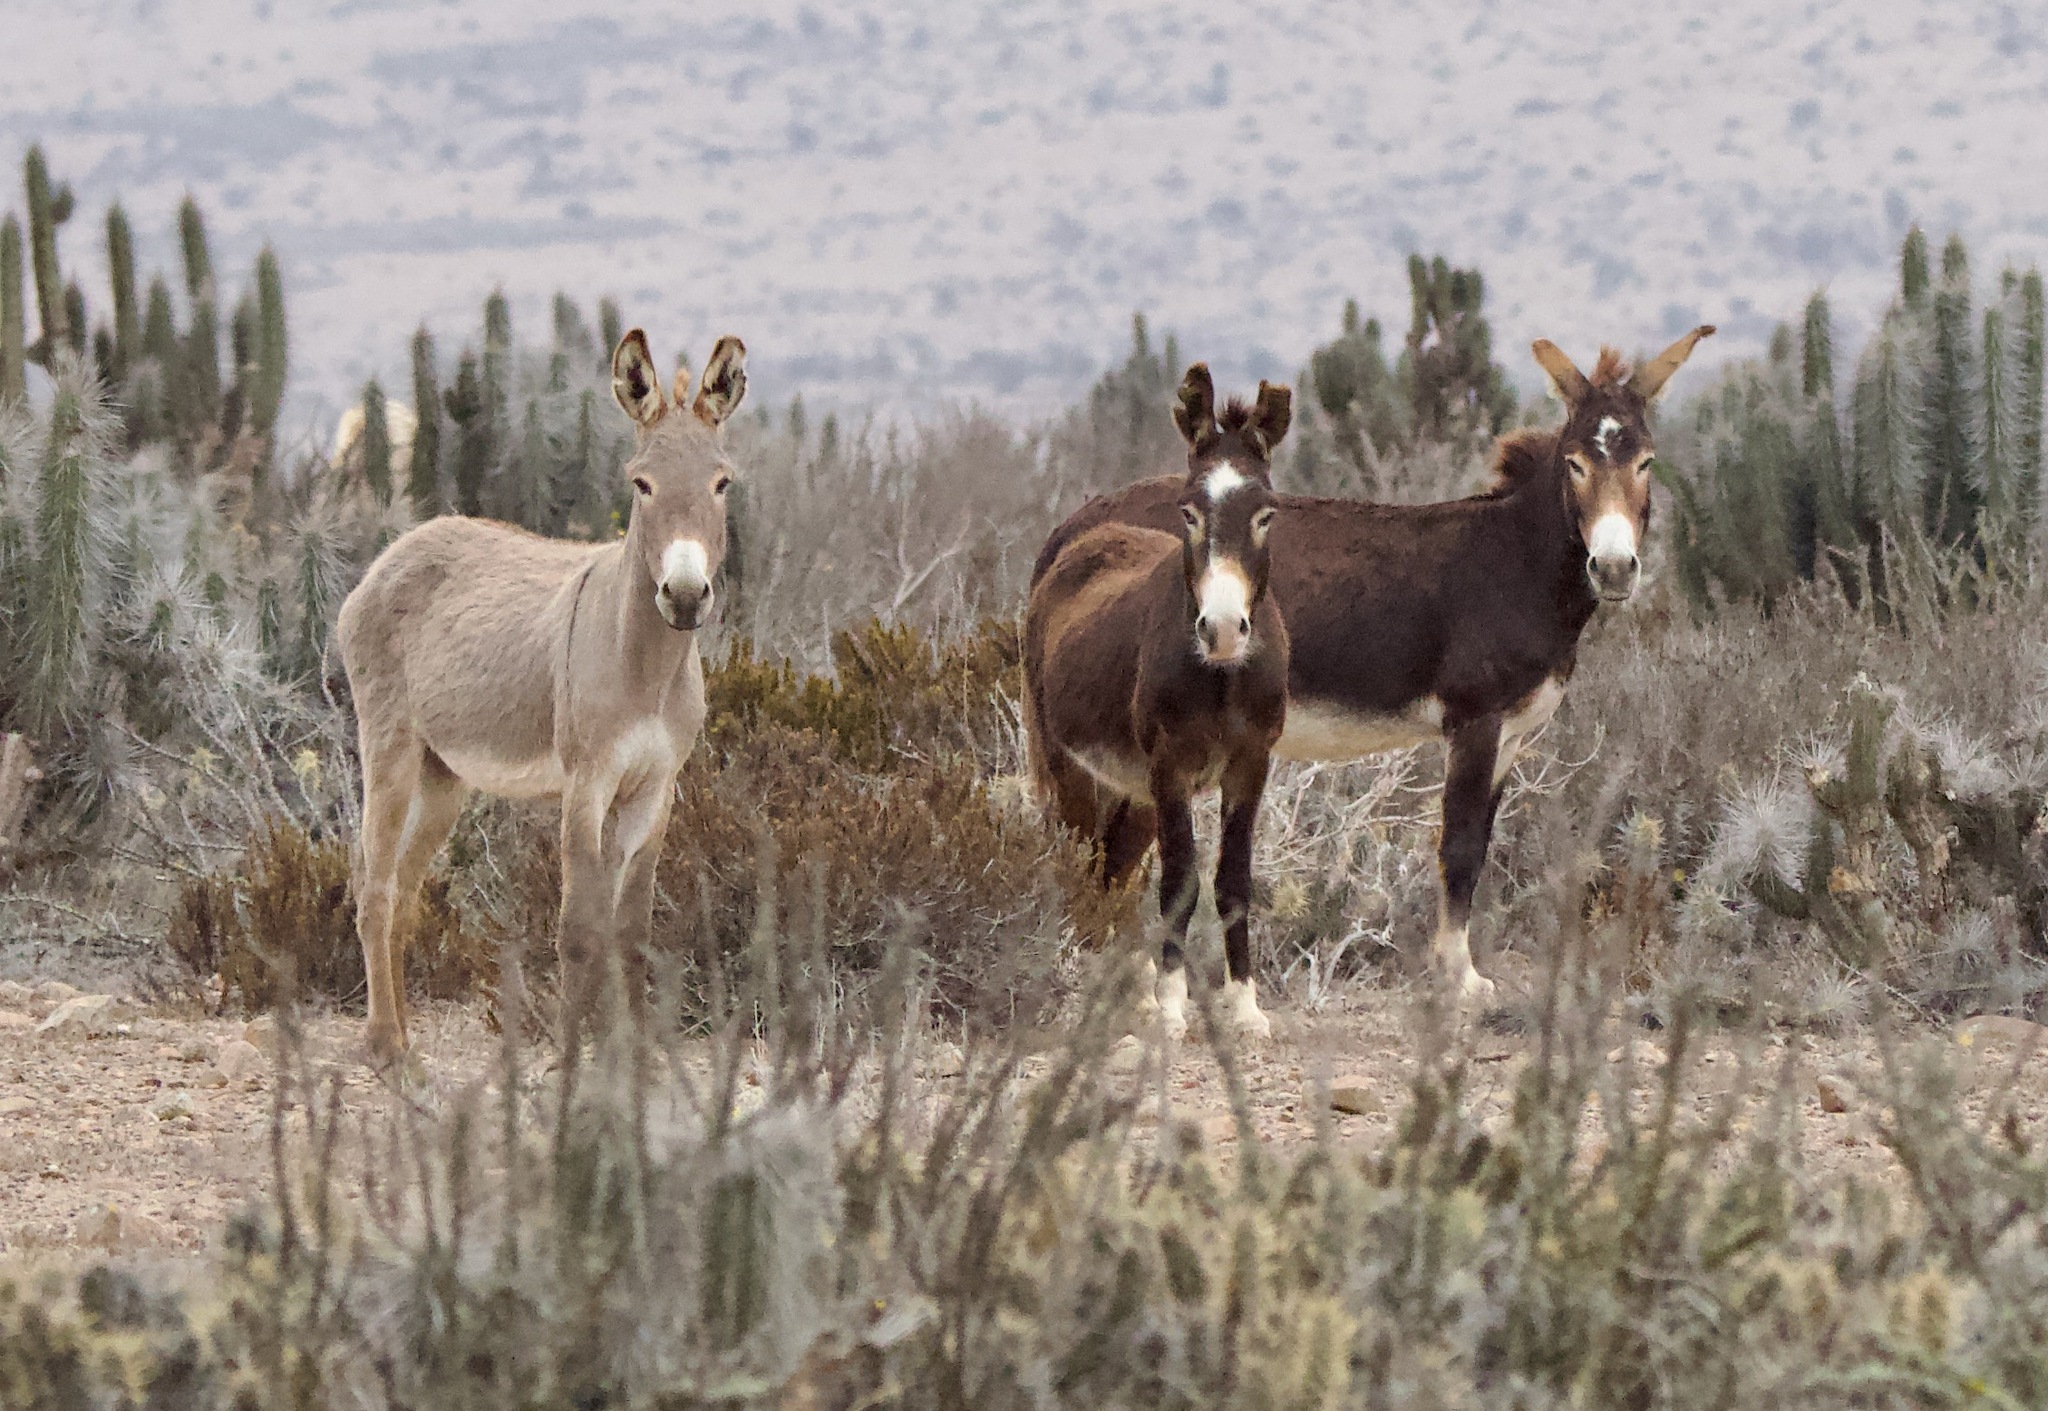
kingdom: Animalia
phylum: Chordata
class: Mammalia
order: Perissodactyla
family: Equidae
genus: Equus
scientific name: Equus asinus
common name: Ass
